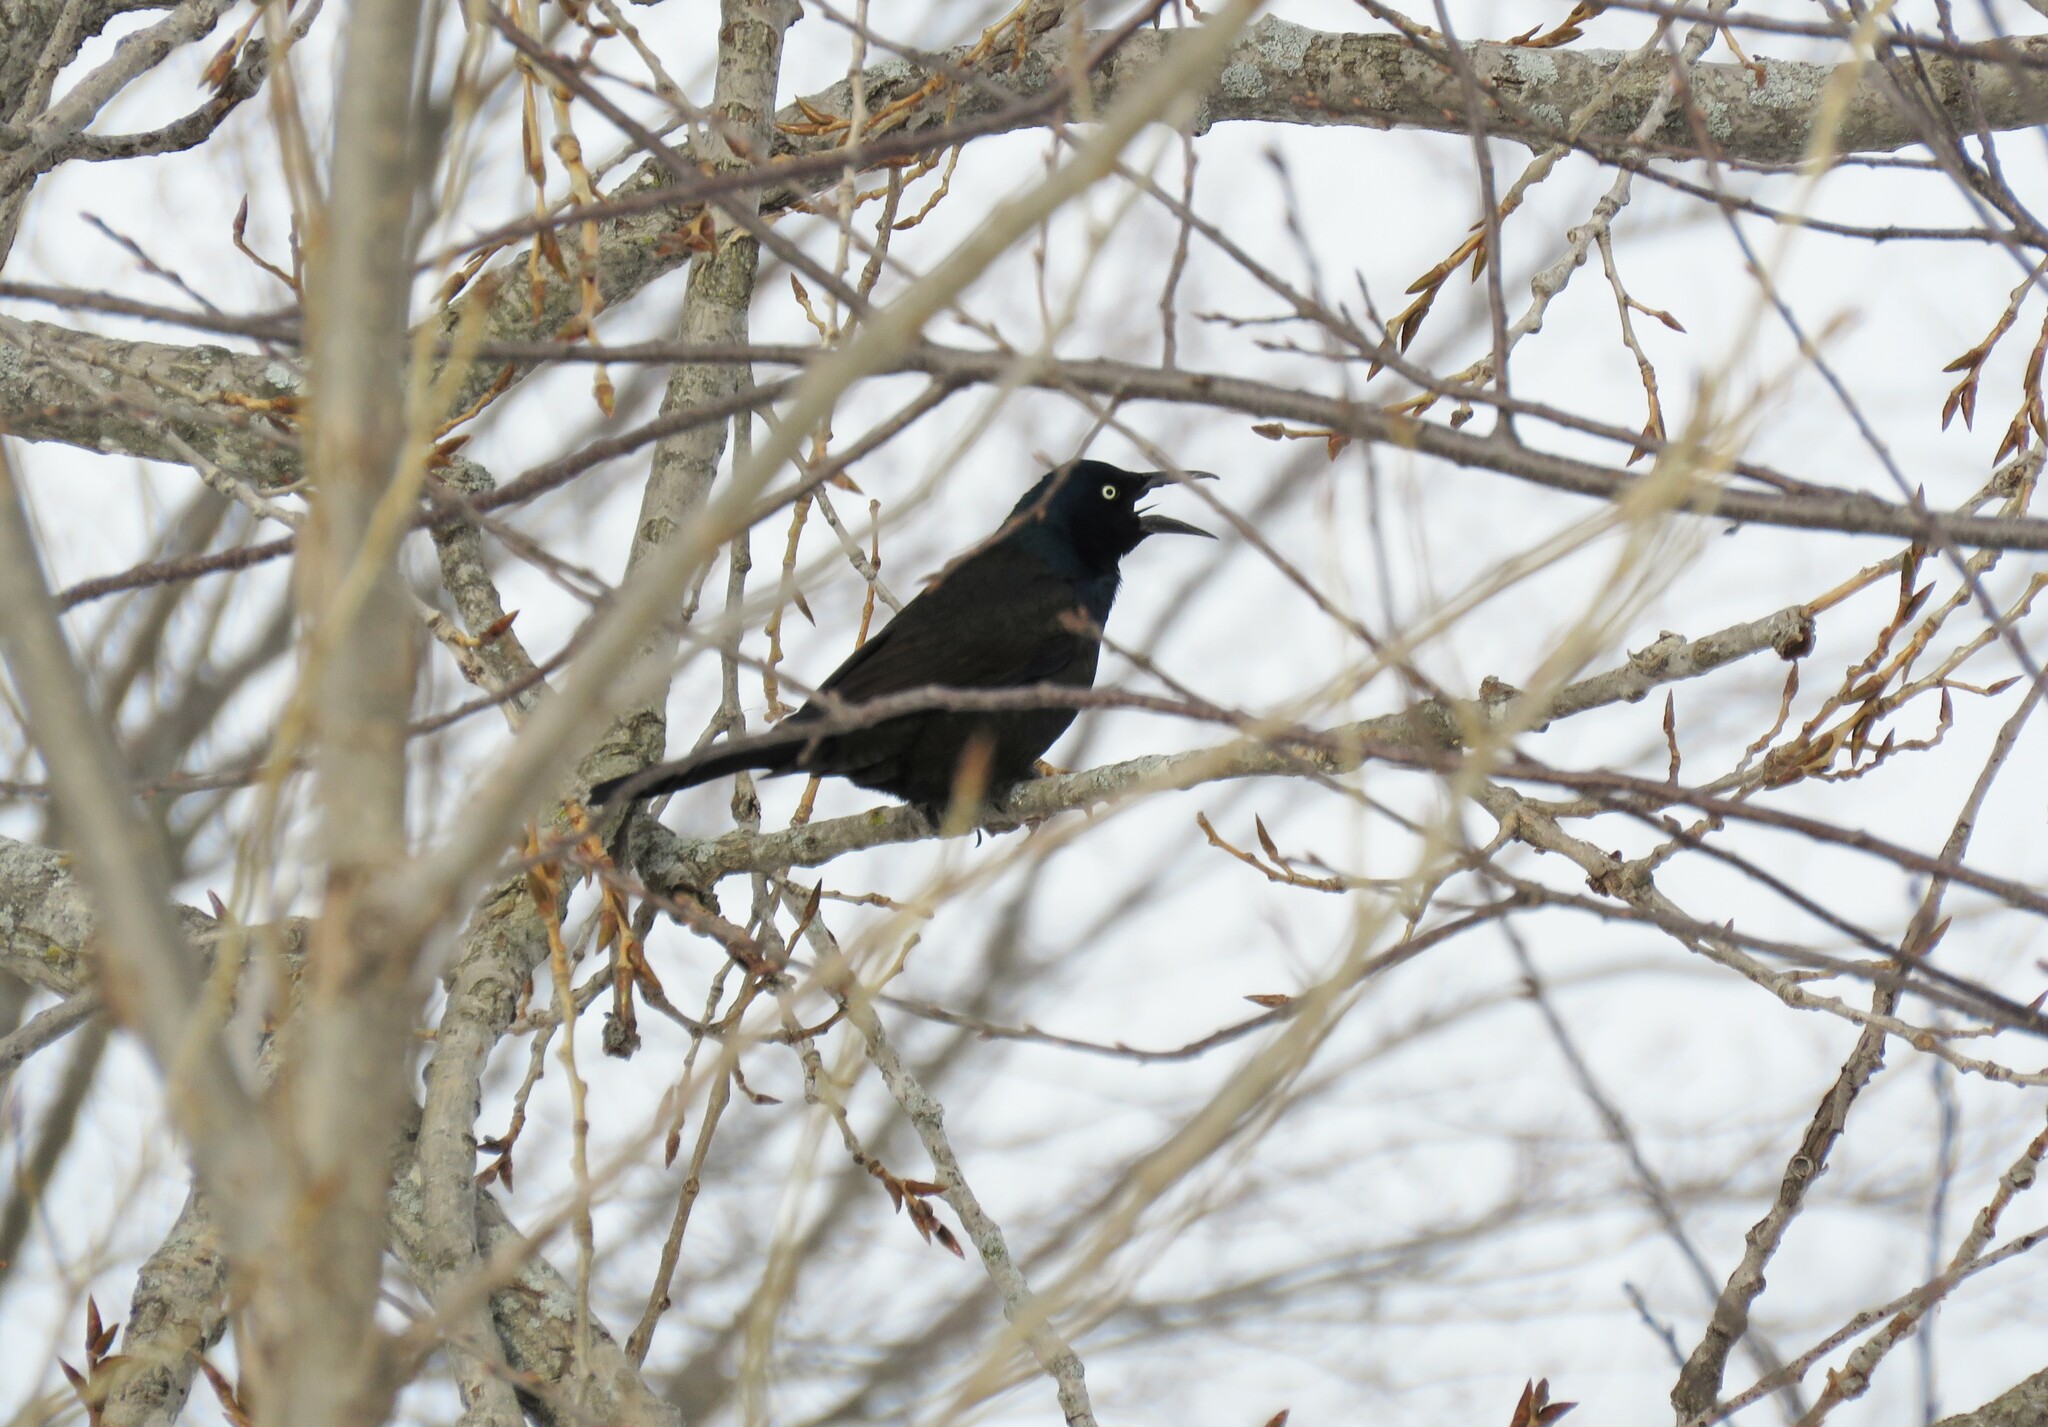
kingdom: Animalia
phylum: Chordata
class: Aves
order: Passeriformes
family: Icteridae
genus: Quiscalus
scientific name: Quiscalus quiscula
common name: Common grackle
